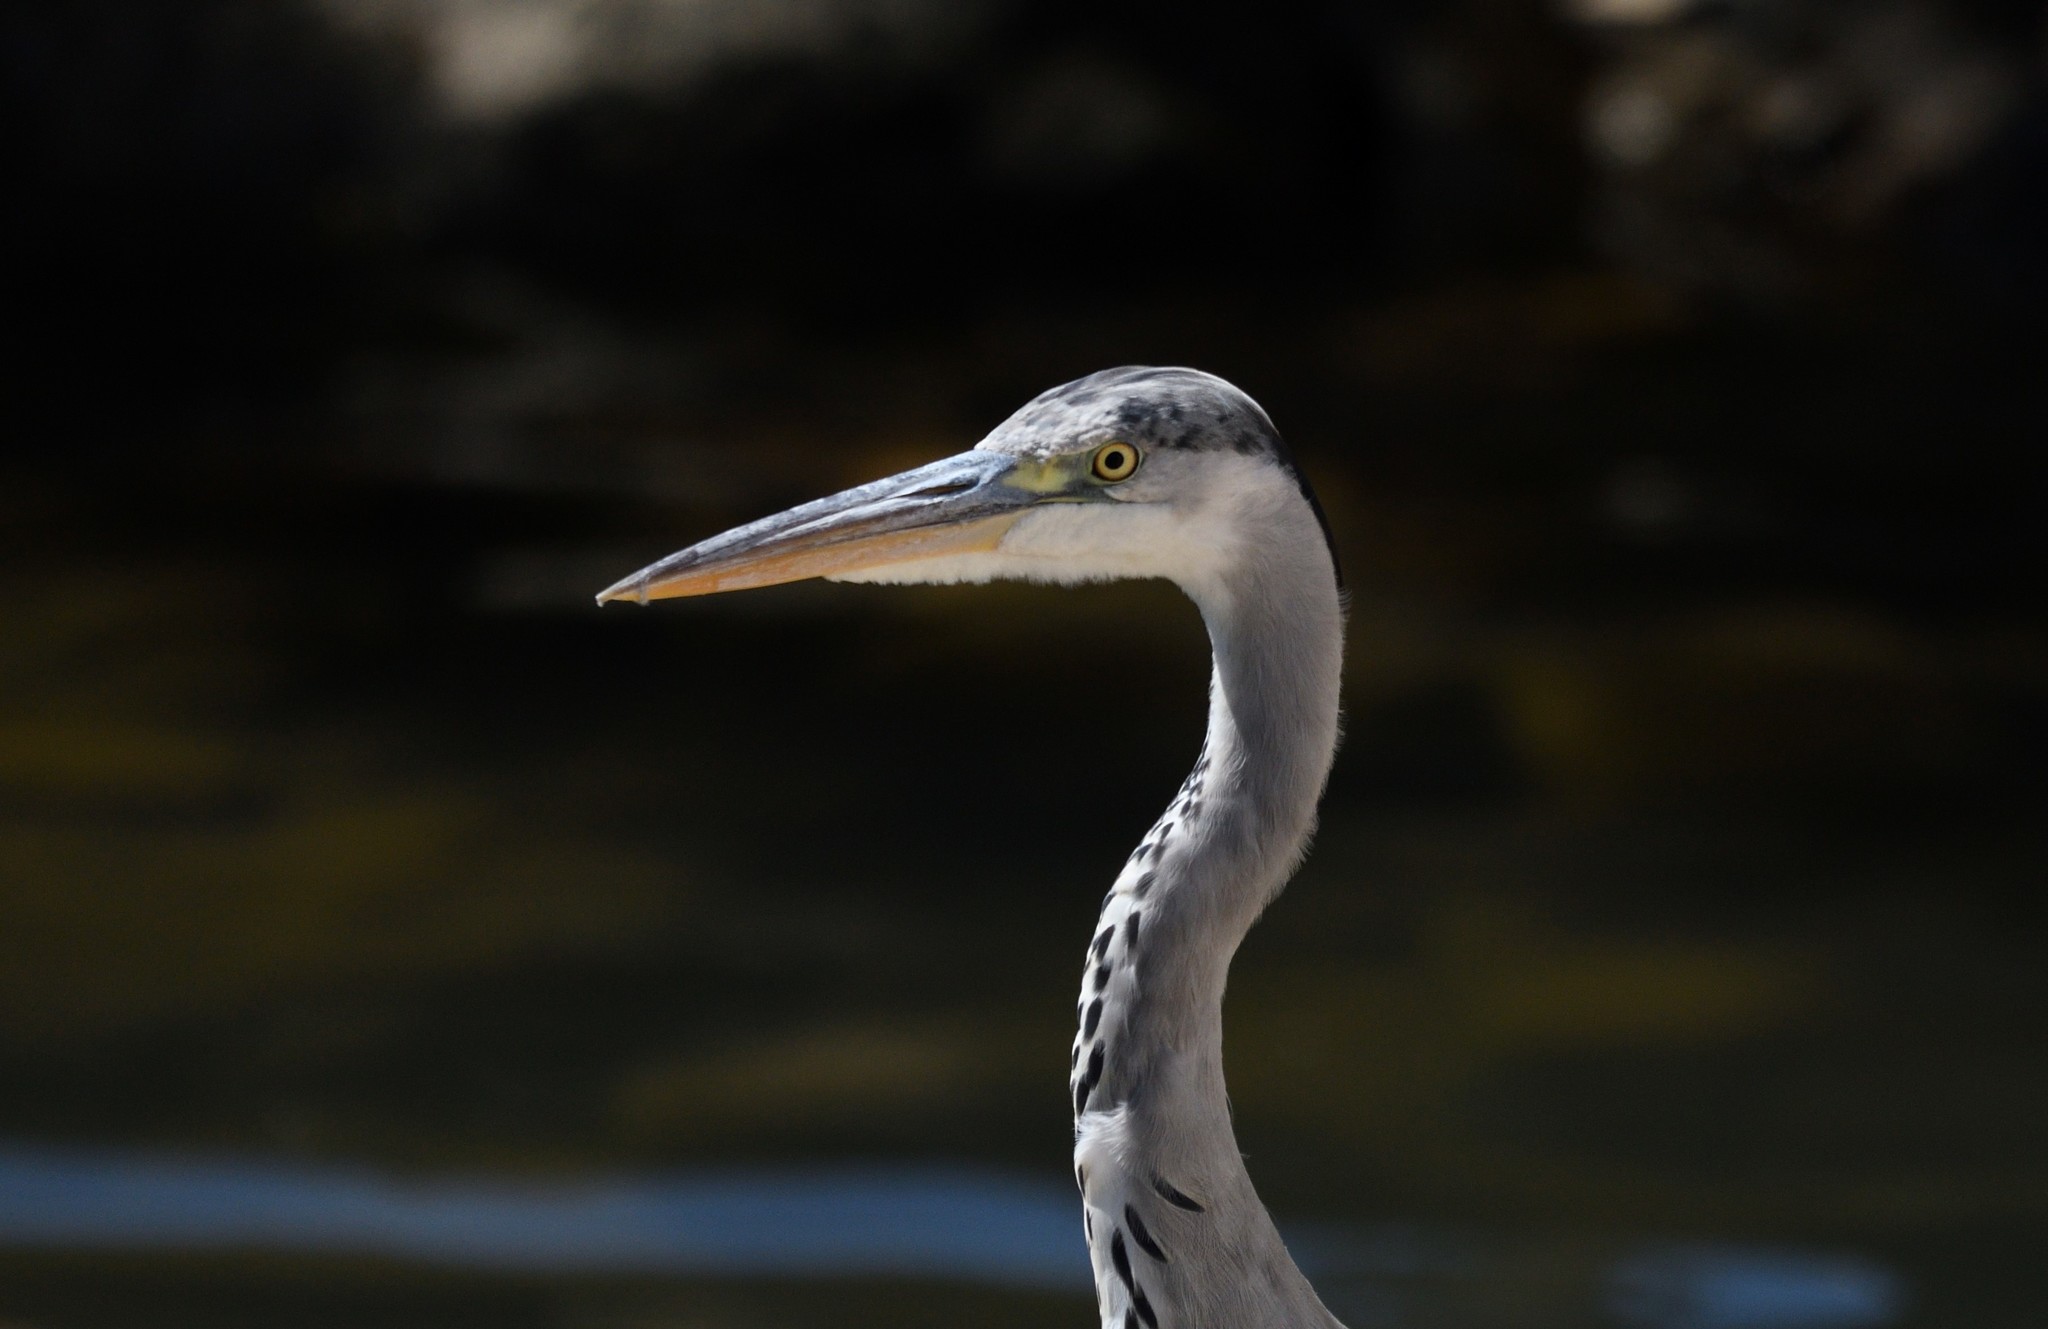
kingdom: Animalia
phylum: Chordata
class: Aves
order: Pelecaniformes
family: Ardeidae
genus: Ardea
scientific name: Ardea cinerea
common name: Grey heron
